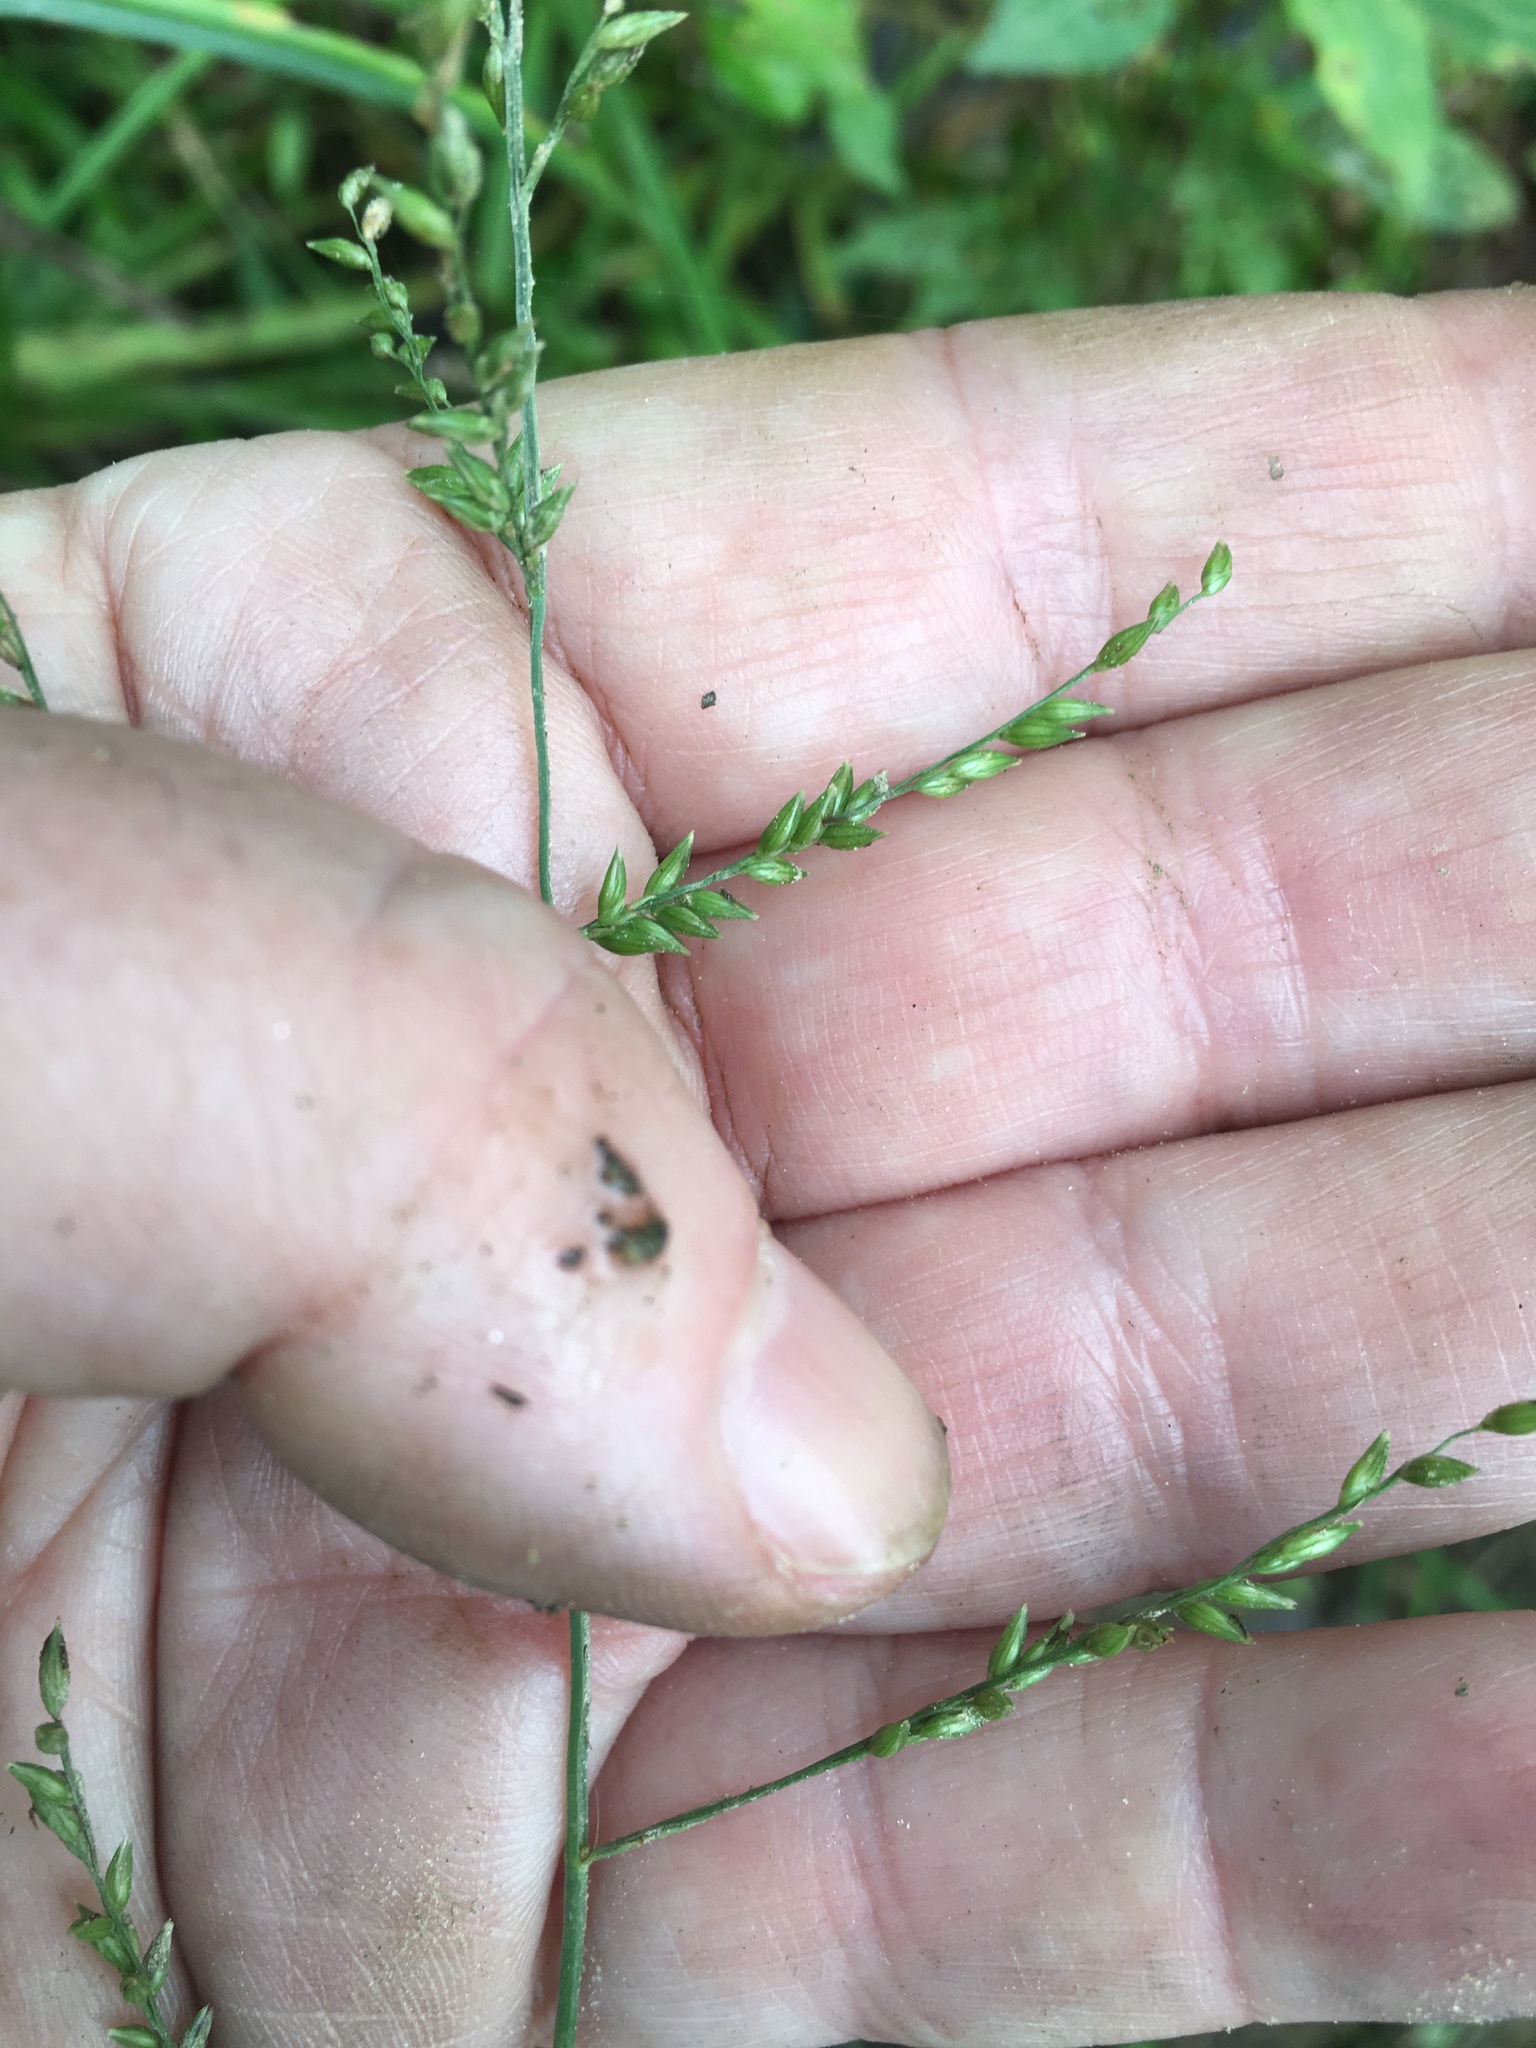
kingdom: Plantae
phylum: Tracheophyta
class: Liliopsida
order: Poales
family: Poaceae
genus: Coleataenia
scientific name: Coleataenia anceps
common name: Beaked panic grass
